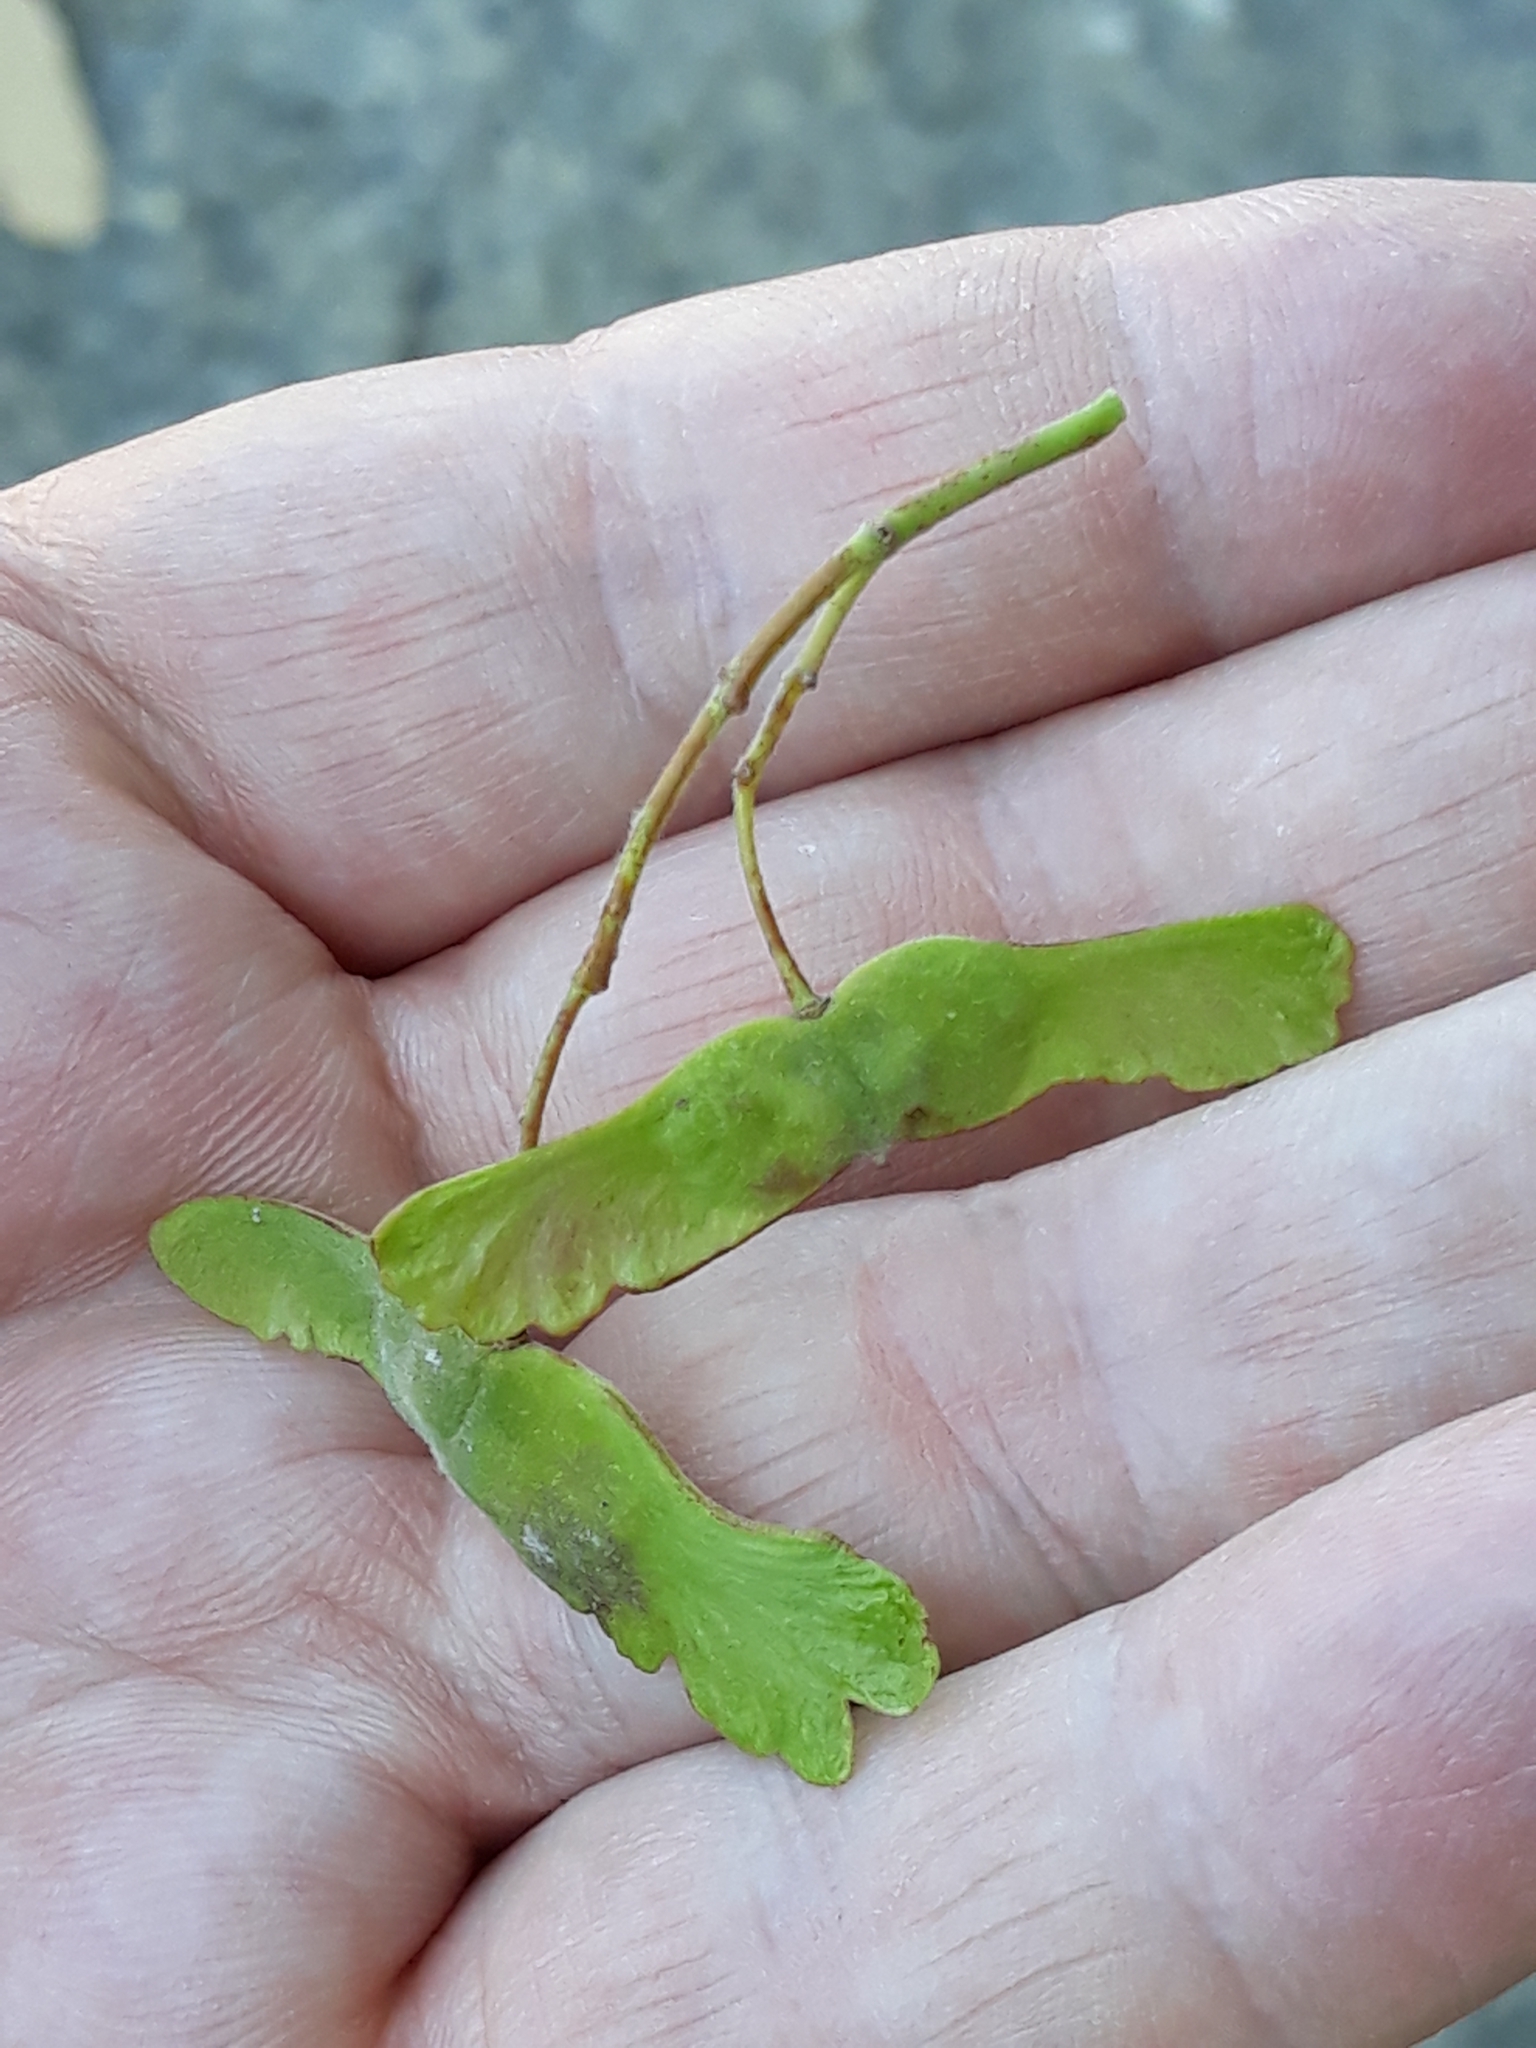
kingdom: Plantae
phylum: Tracheophyta
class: Magnoliopsida
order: Sapindales
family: Sapindaceae
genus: Acer
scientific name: Acer campestre
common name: Field maple
